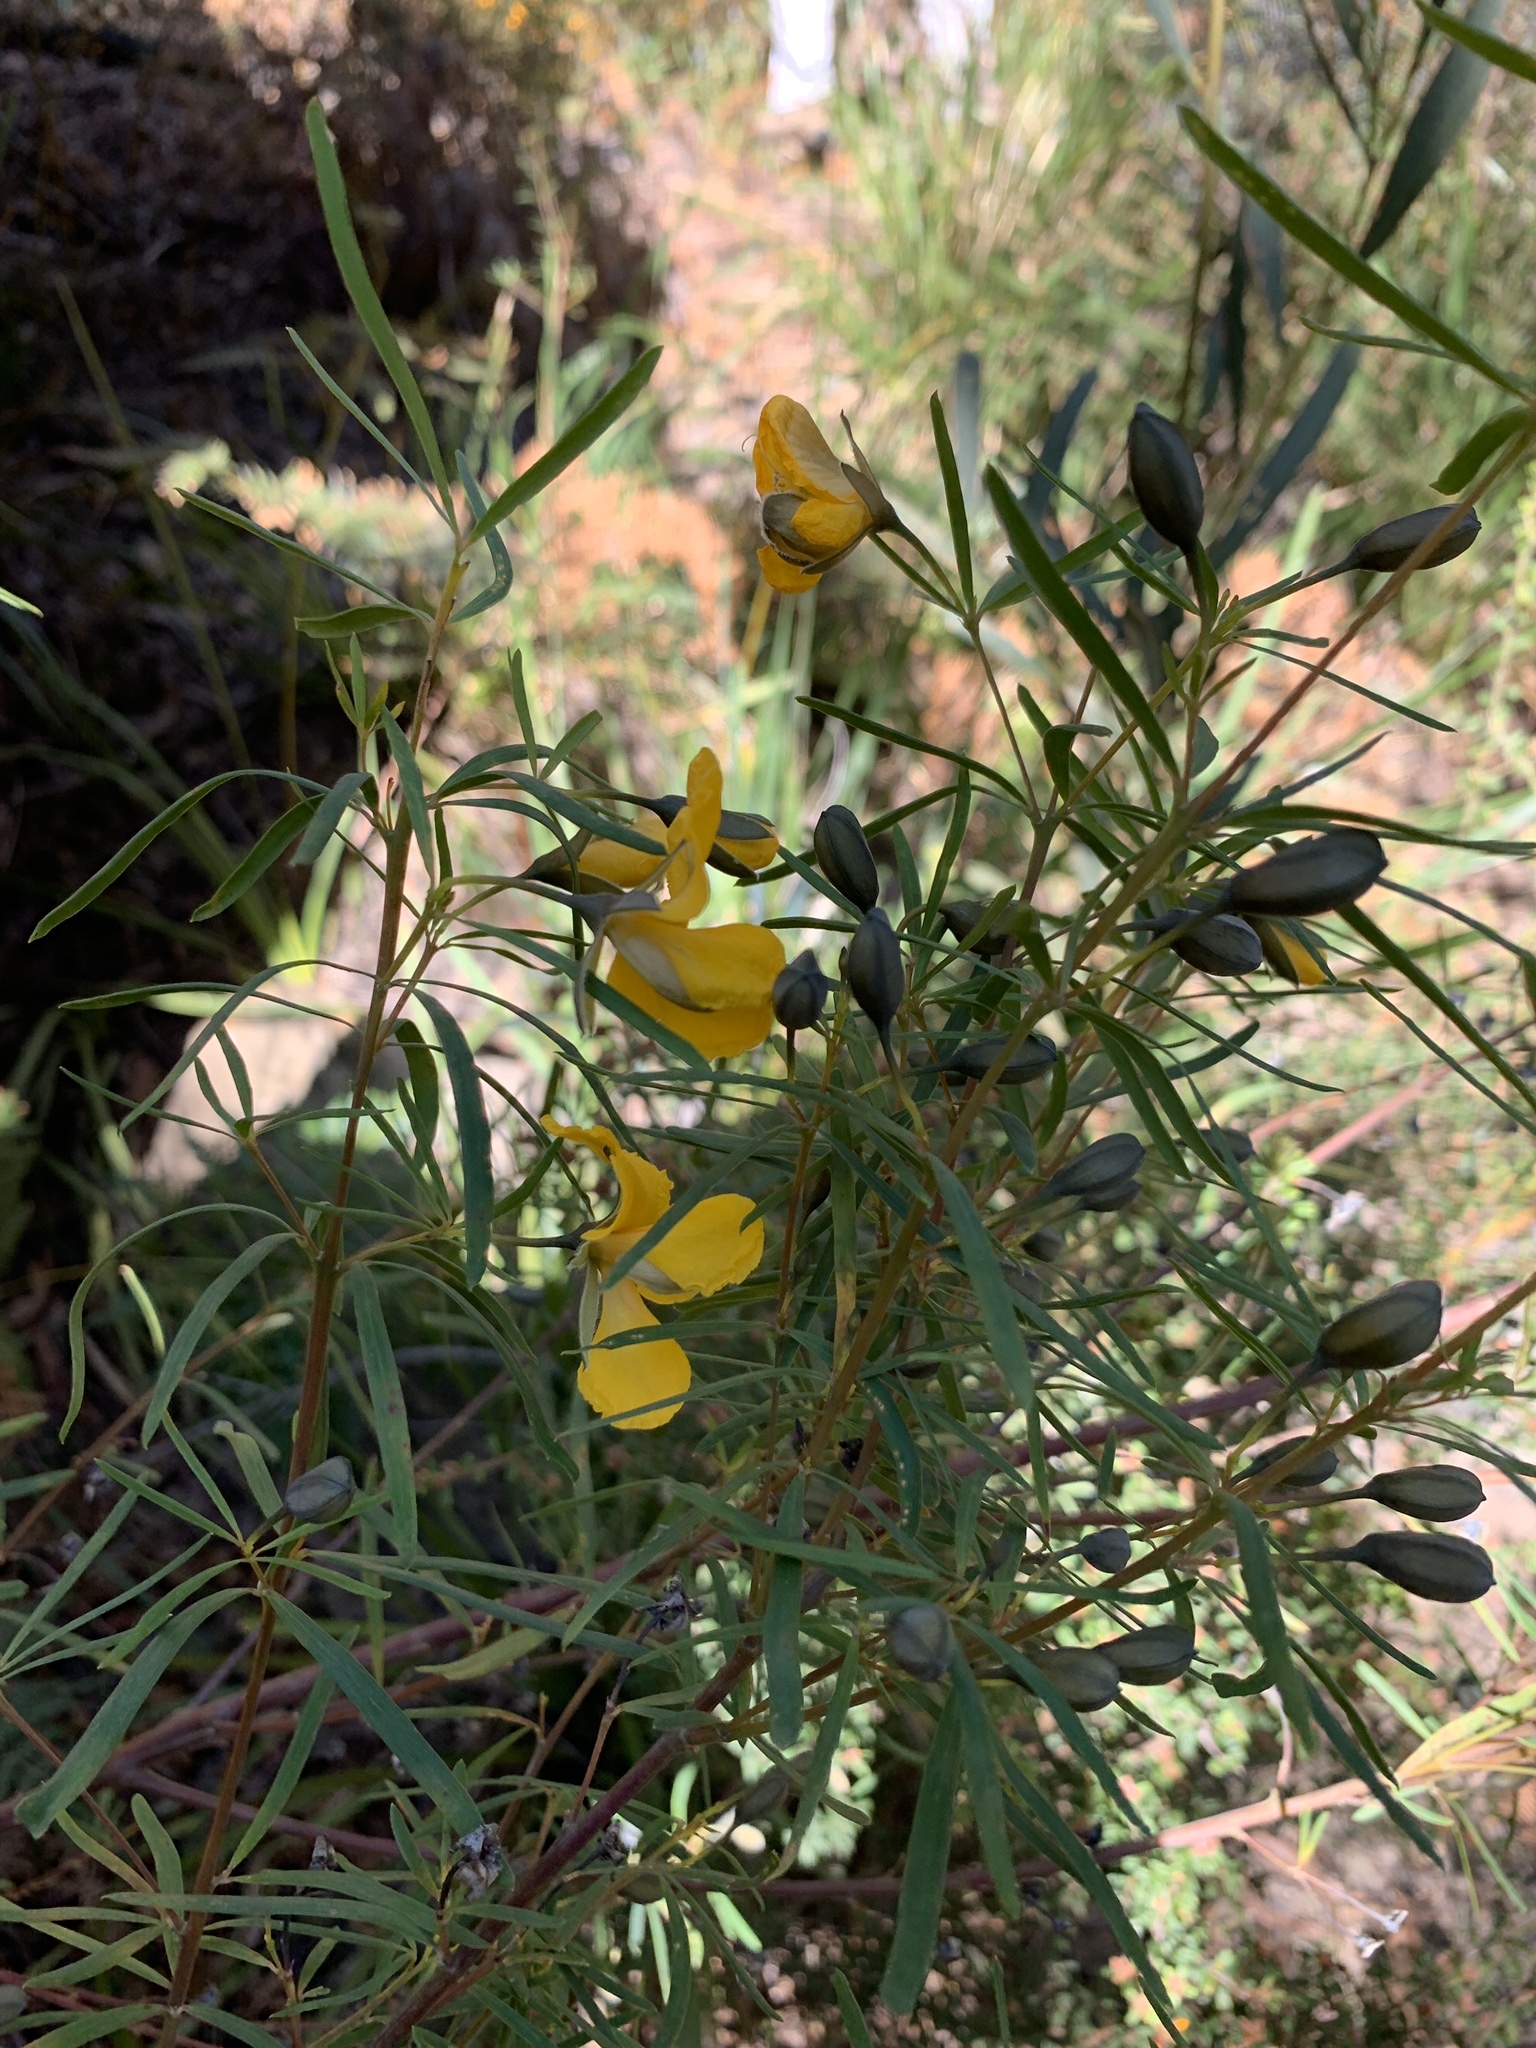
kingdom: Plantae
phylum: Tracheophyta
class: Magnoliopsida
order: Fabales
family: Fabaceae
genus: Gompholobium
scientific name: Gompholobium latifolium
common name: Broadleaf wedge-pea
